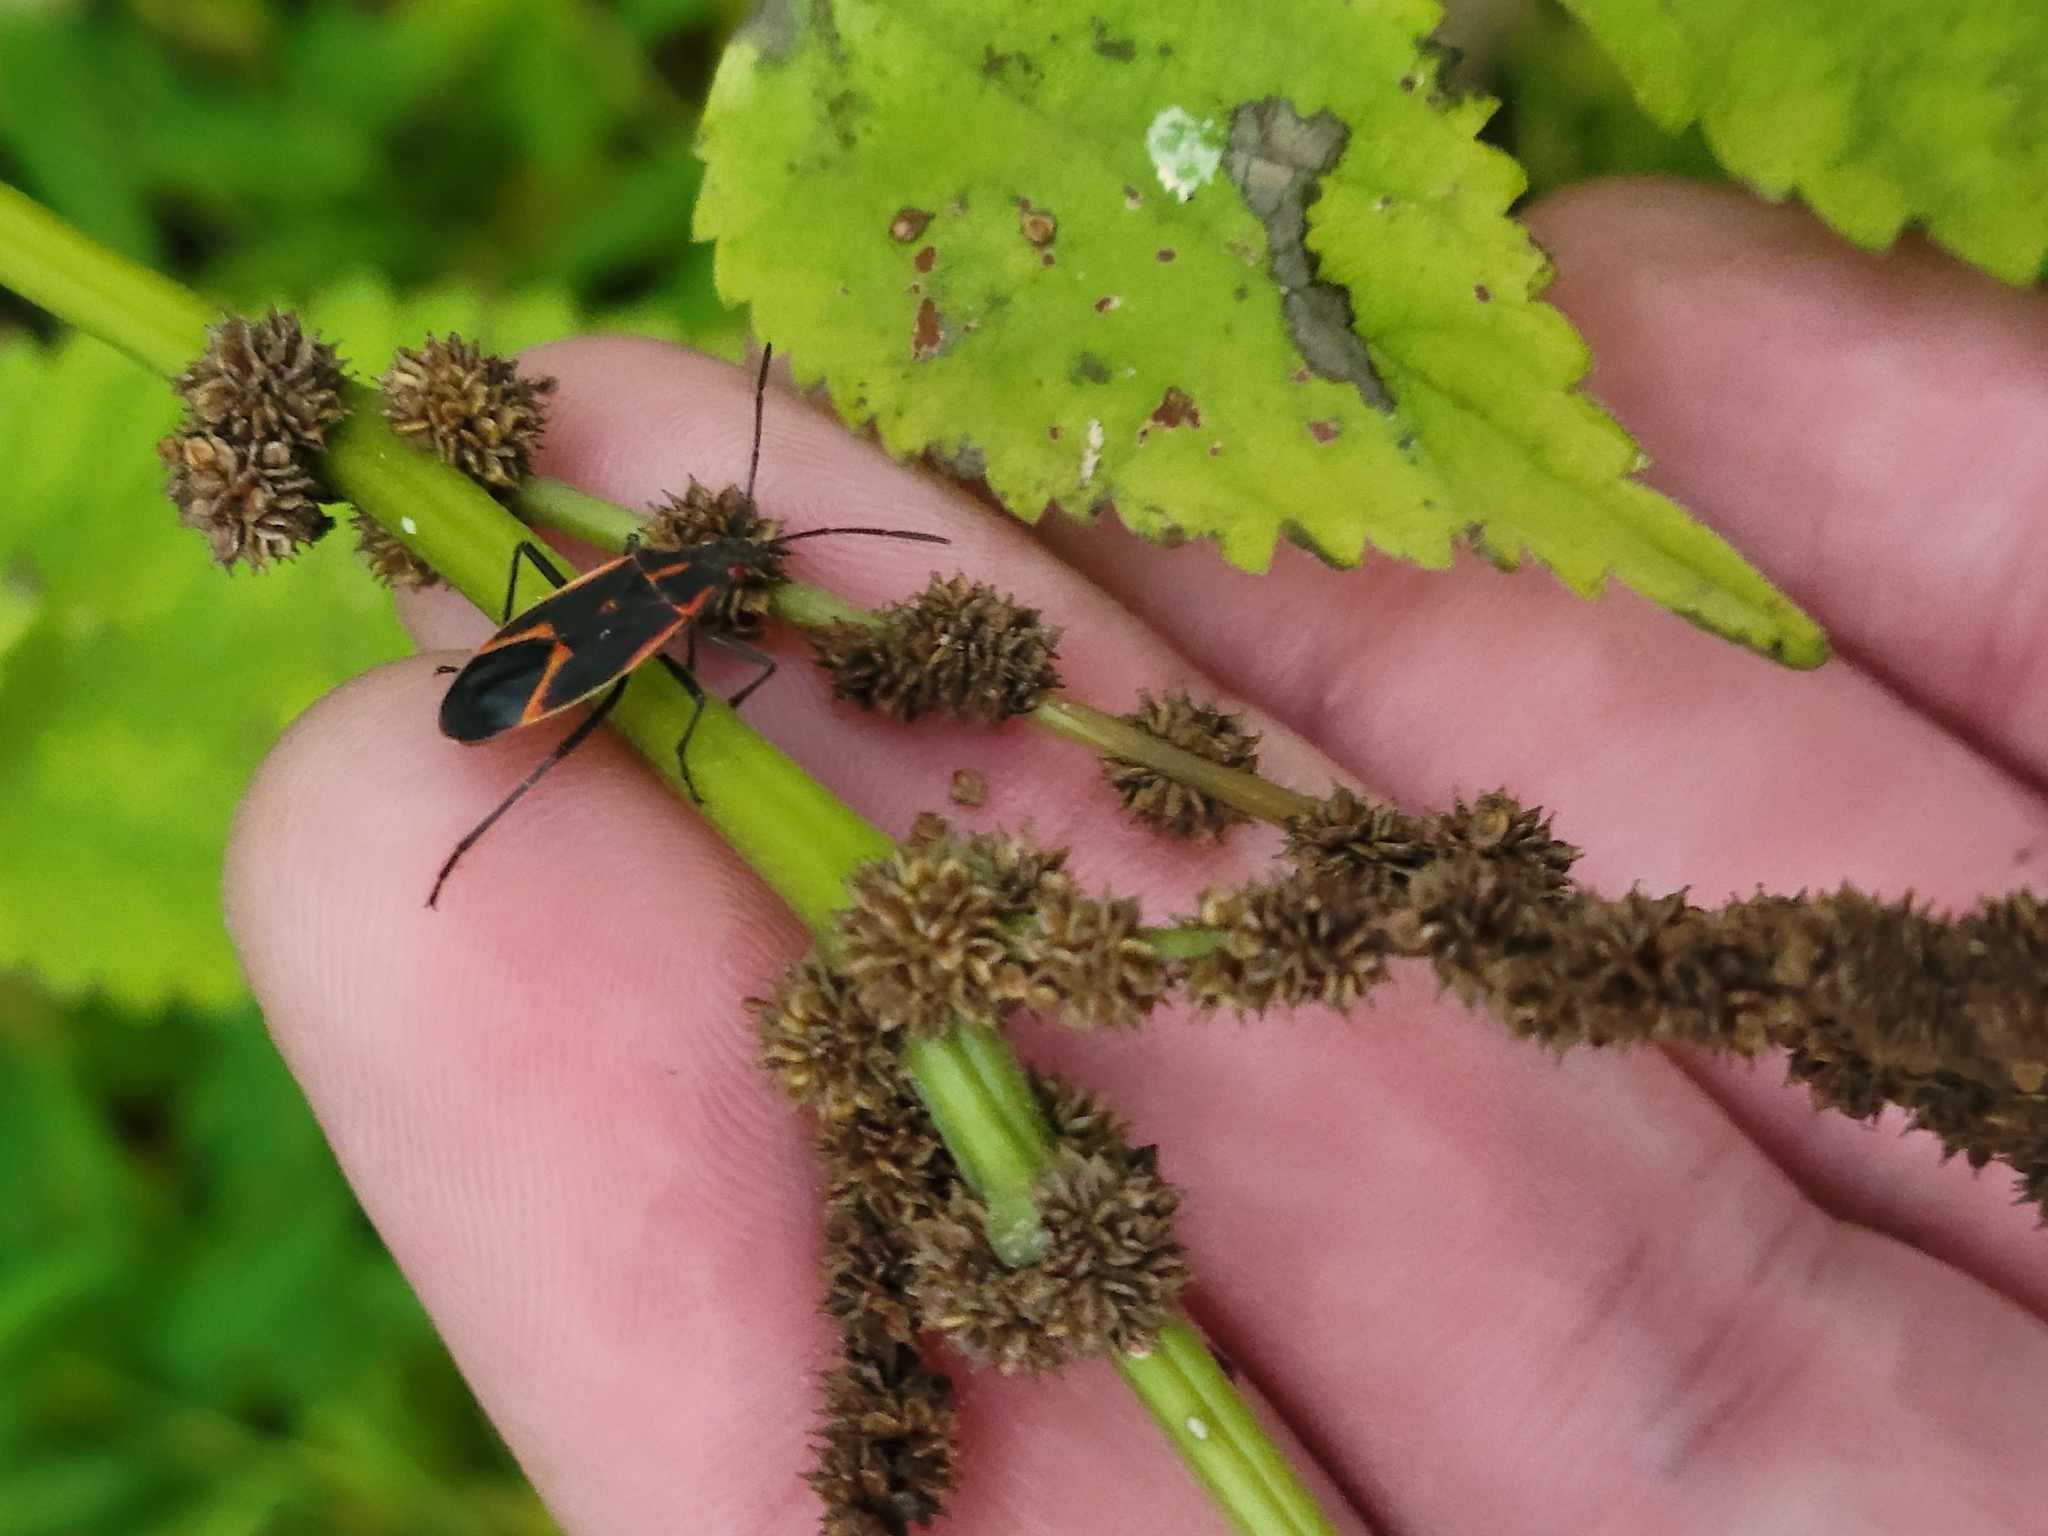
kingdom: Animalia
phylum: Arthropoda
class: Insecta
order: Hemiptera
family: Rhopalidae
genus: Boisea
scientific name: Boisea trivittata
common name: Boxelder bug
